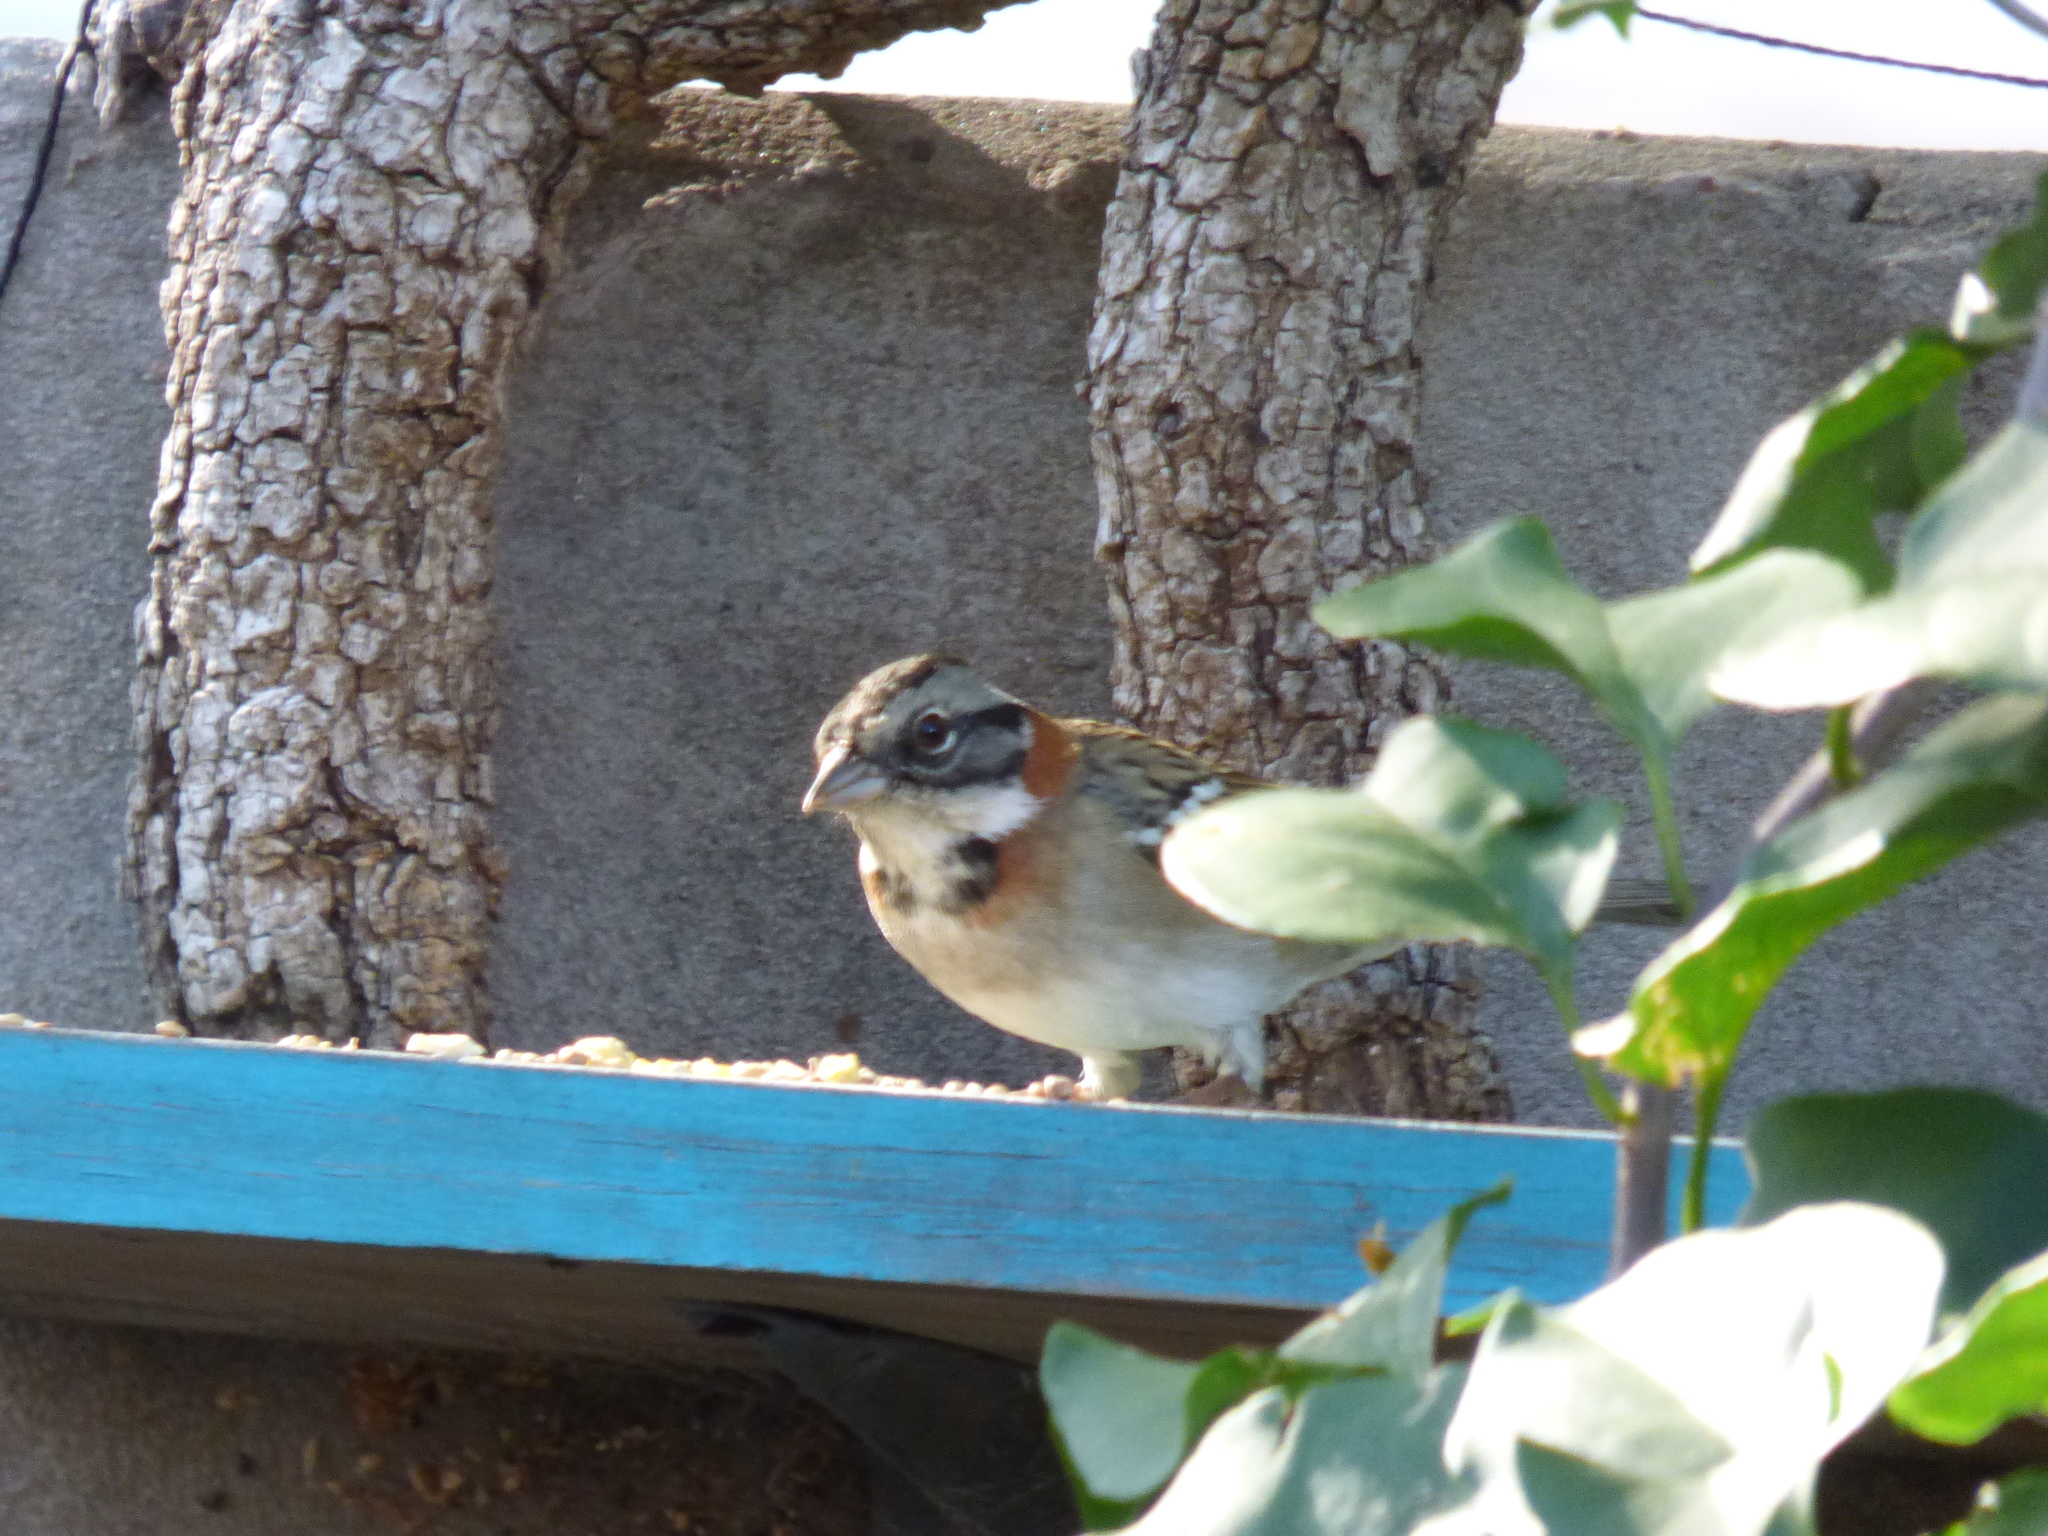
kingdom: Animalia
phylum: Chordata
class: Aves
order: Passeriformes
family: Passerellidae
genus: Zonotrichia
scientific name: Zonotrichia capensis
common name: Rufous-collared sparrow
